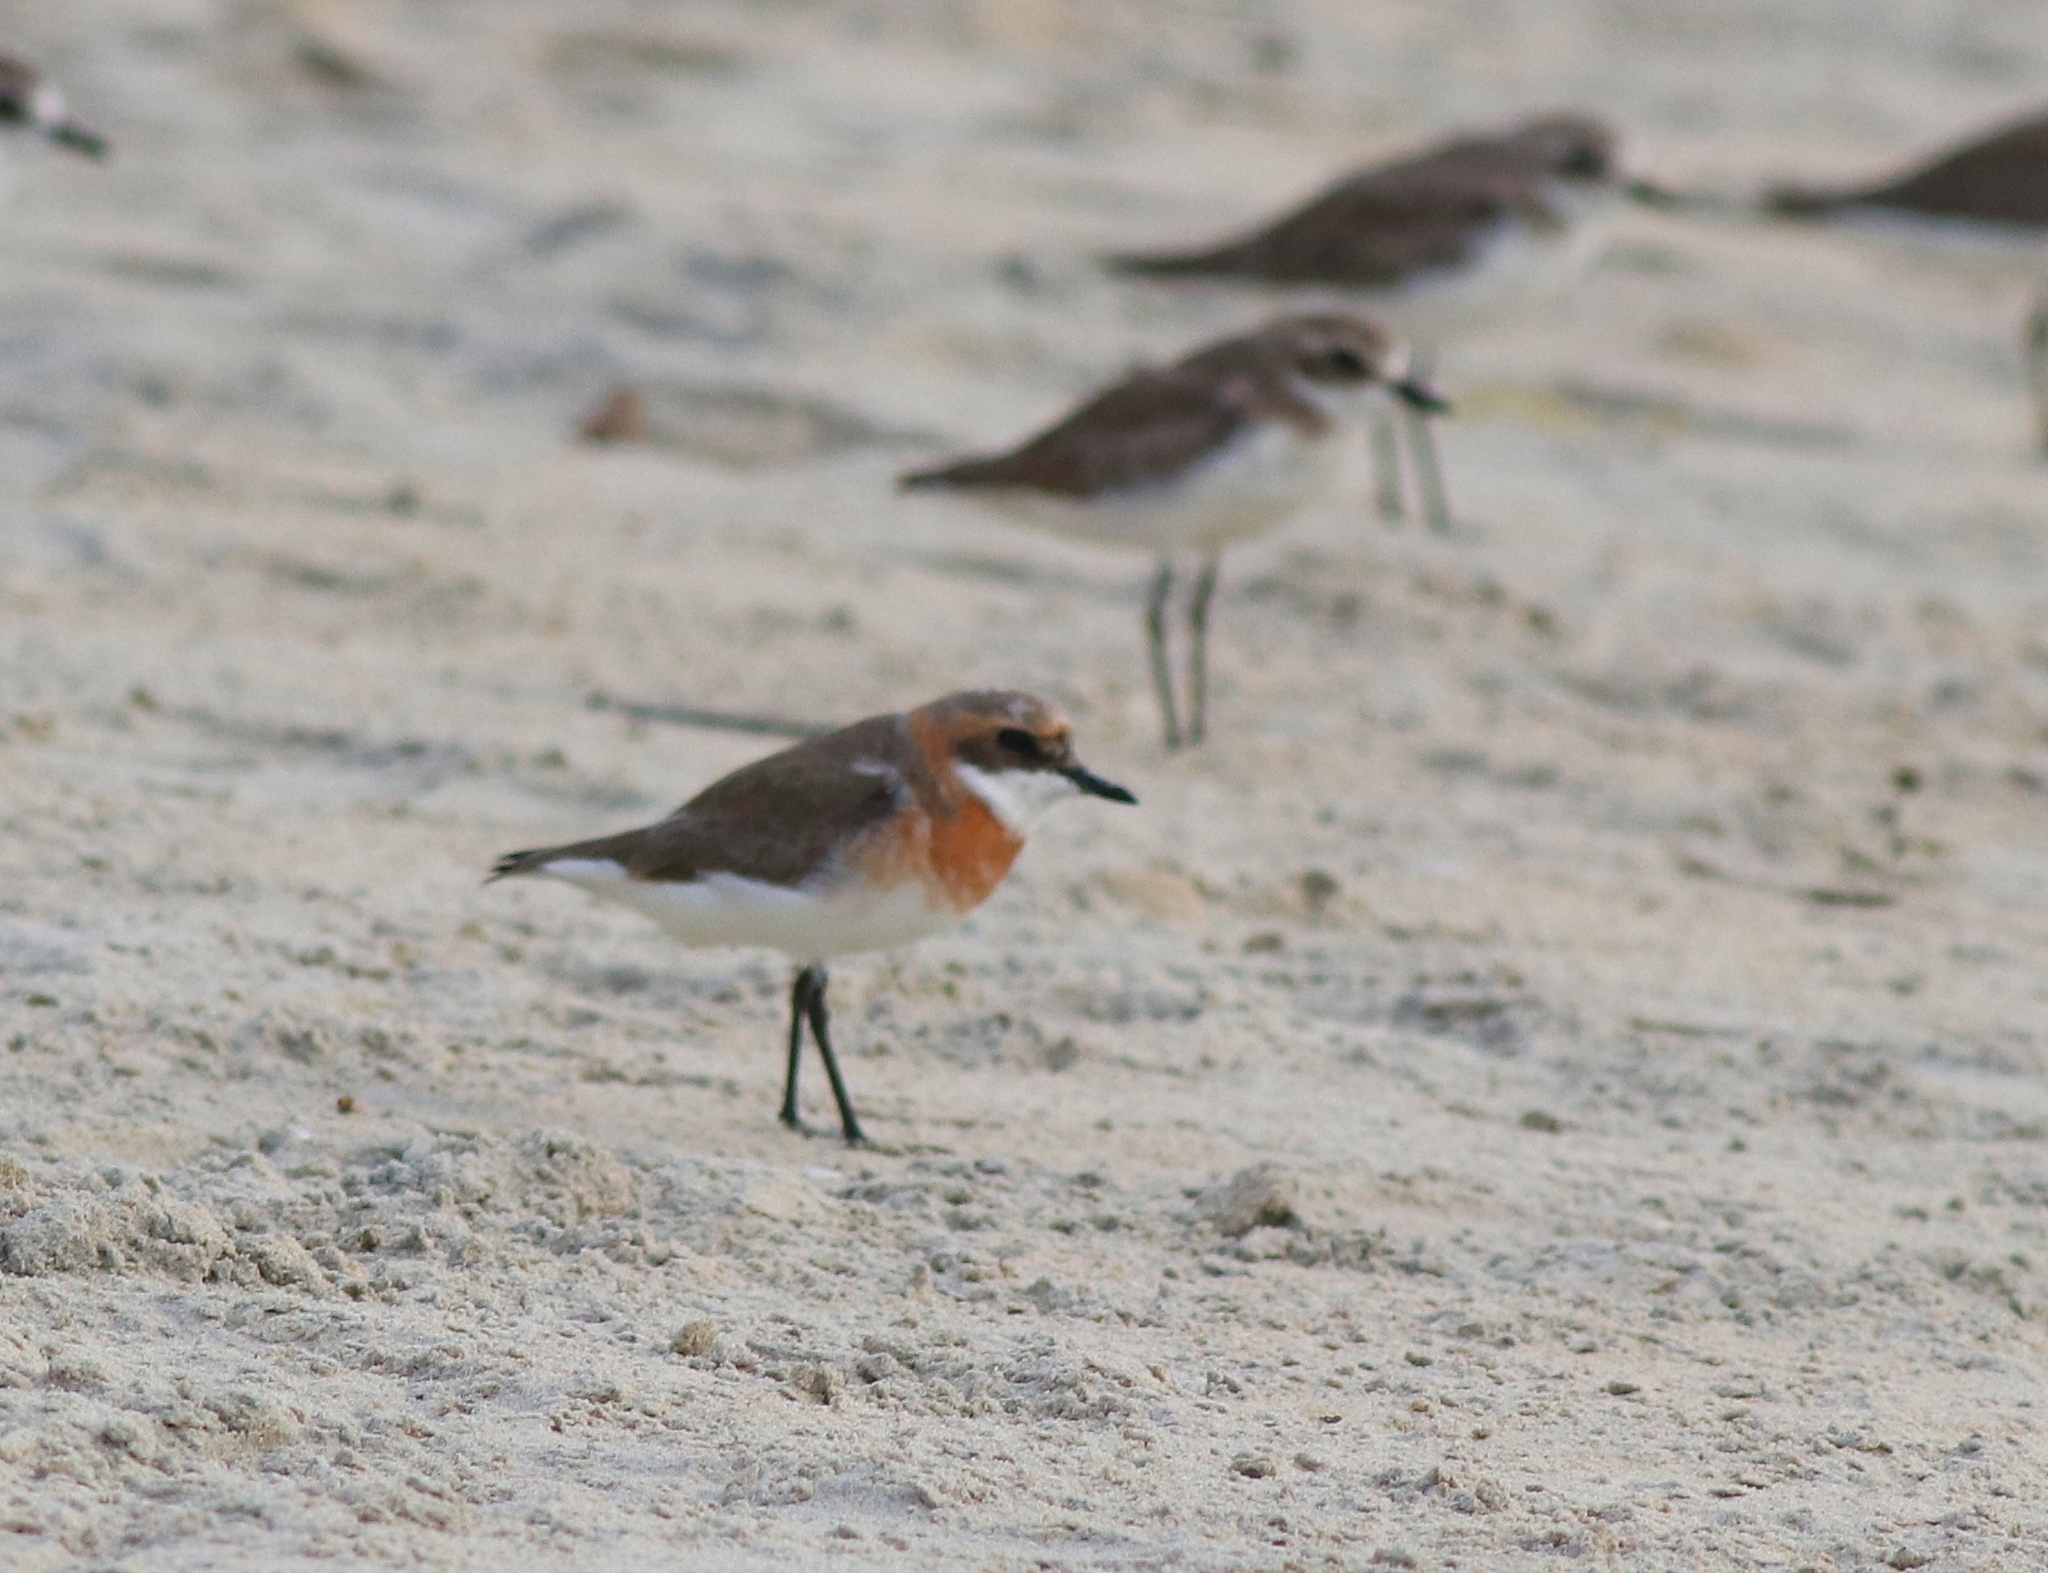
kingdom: Animalia
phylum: Chordata
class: Aves
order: Charadriiformes
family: Charadriidae
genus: Anarhynchus
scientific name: Anarhynchus
